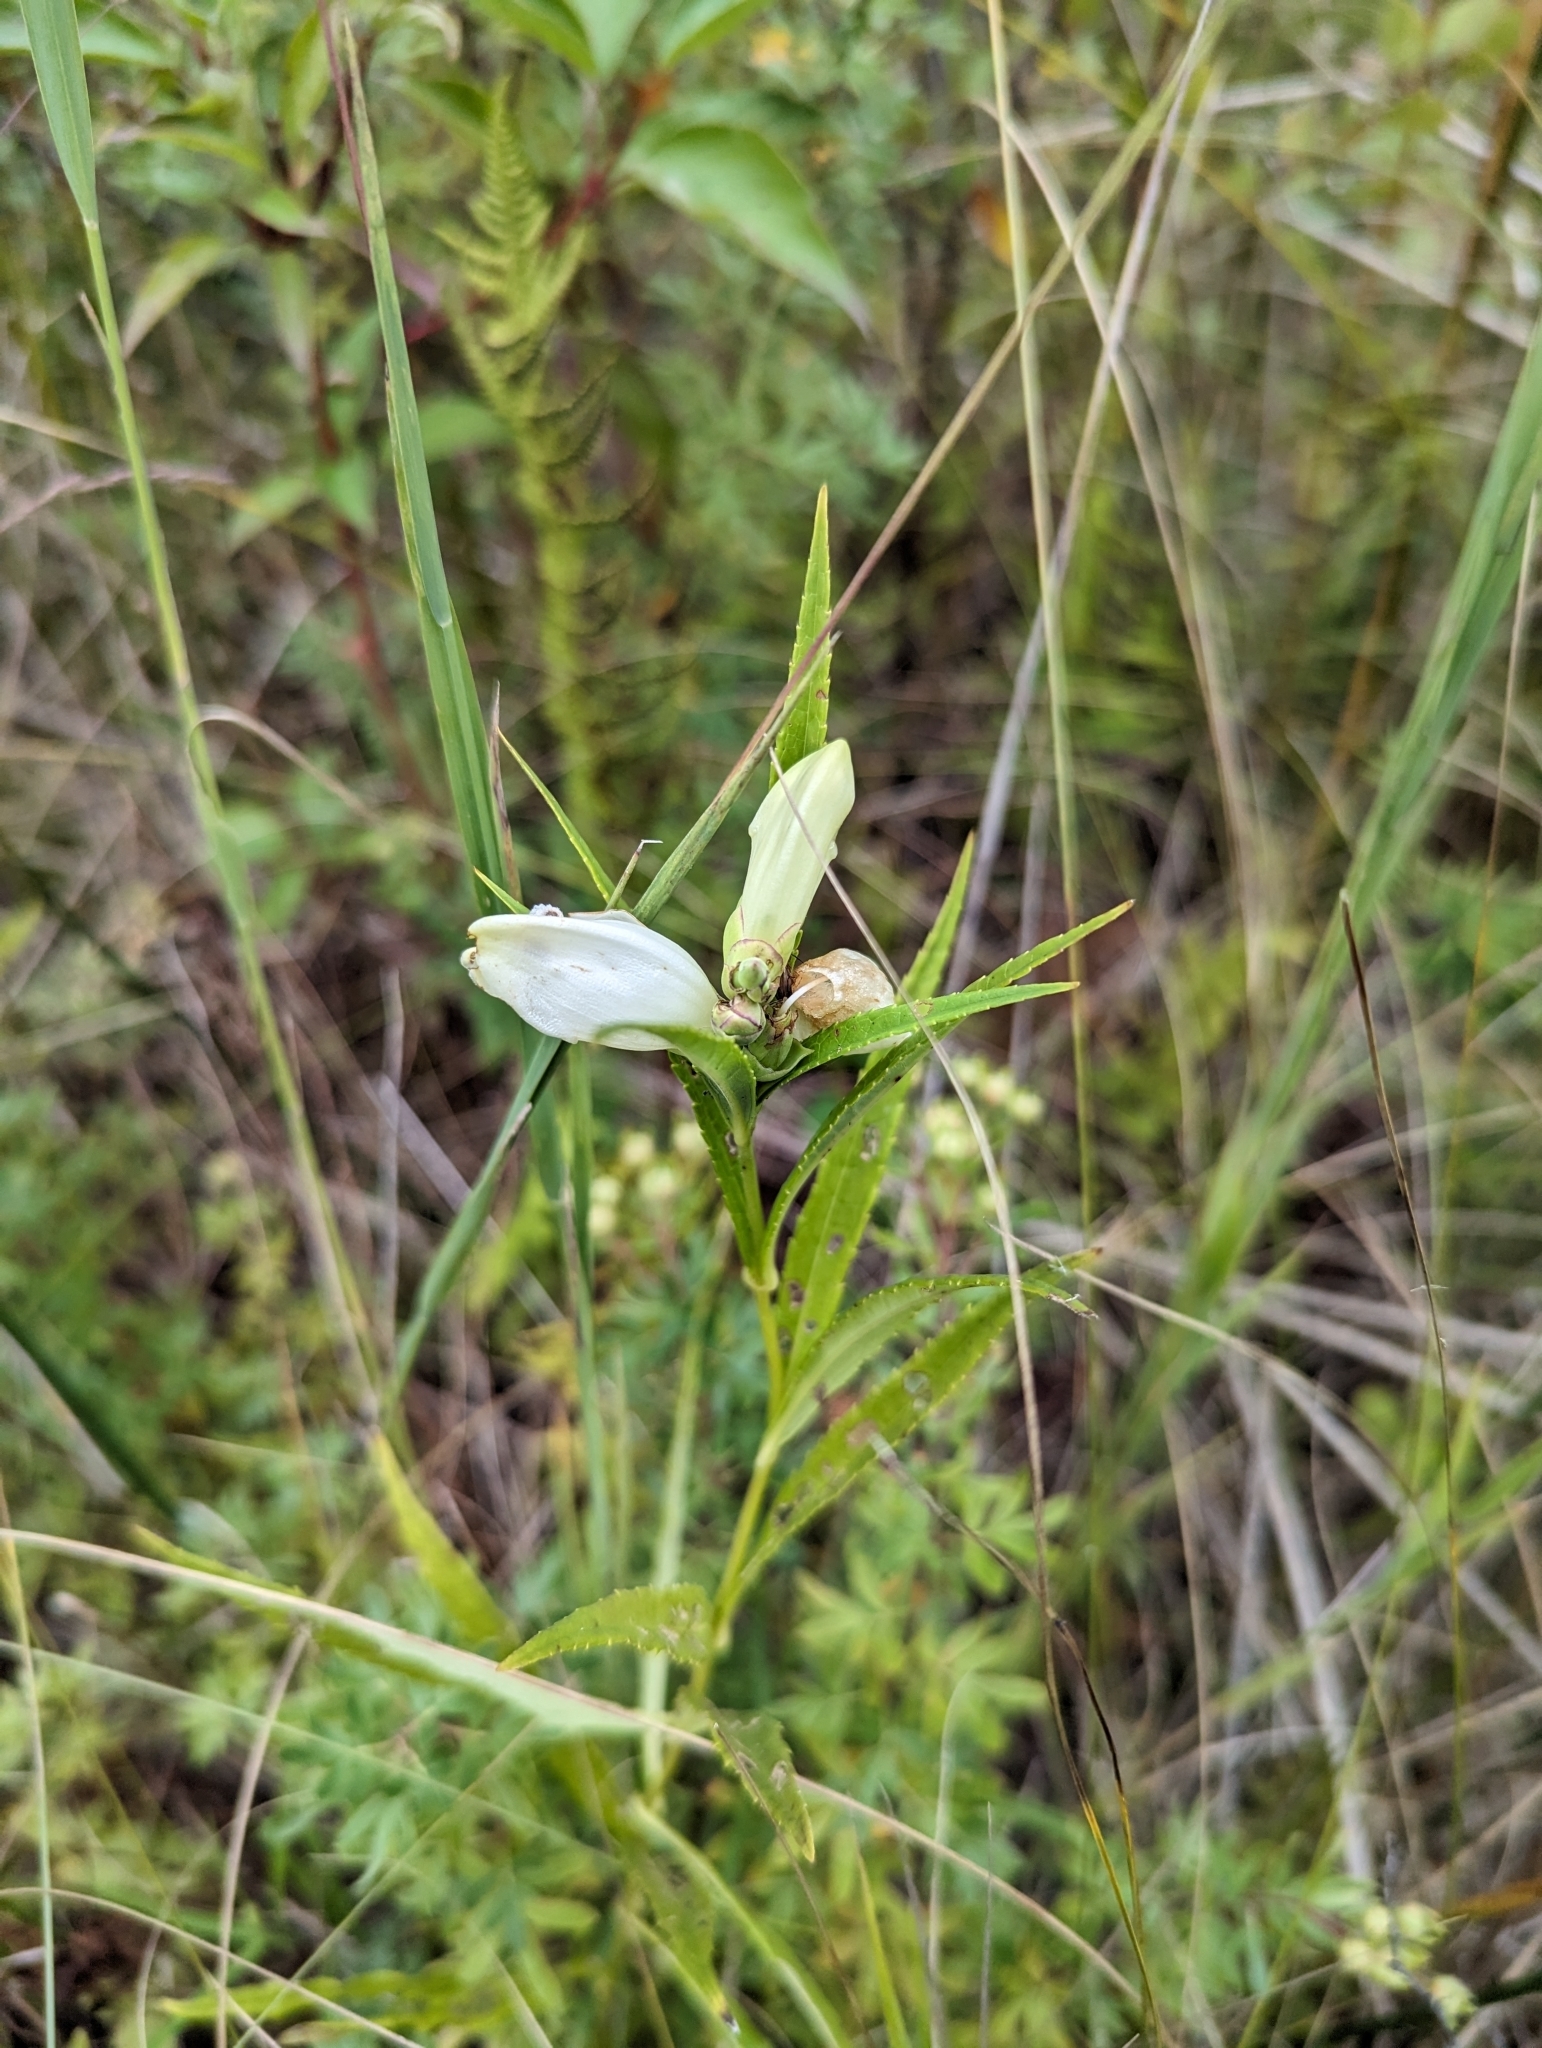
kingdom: Plantae
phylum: Tracheophyta
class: Magnoliopsida
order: Lamiales
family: Plantaginaceae
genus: Chelone
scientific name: Chelone glabra
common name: Snakehead
